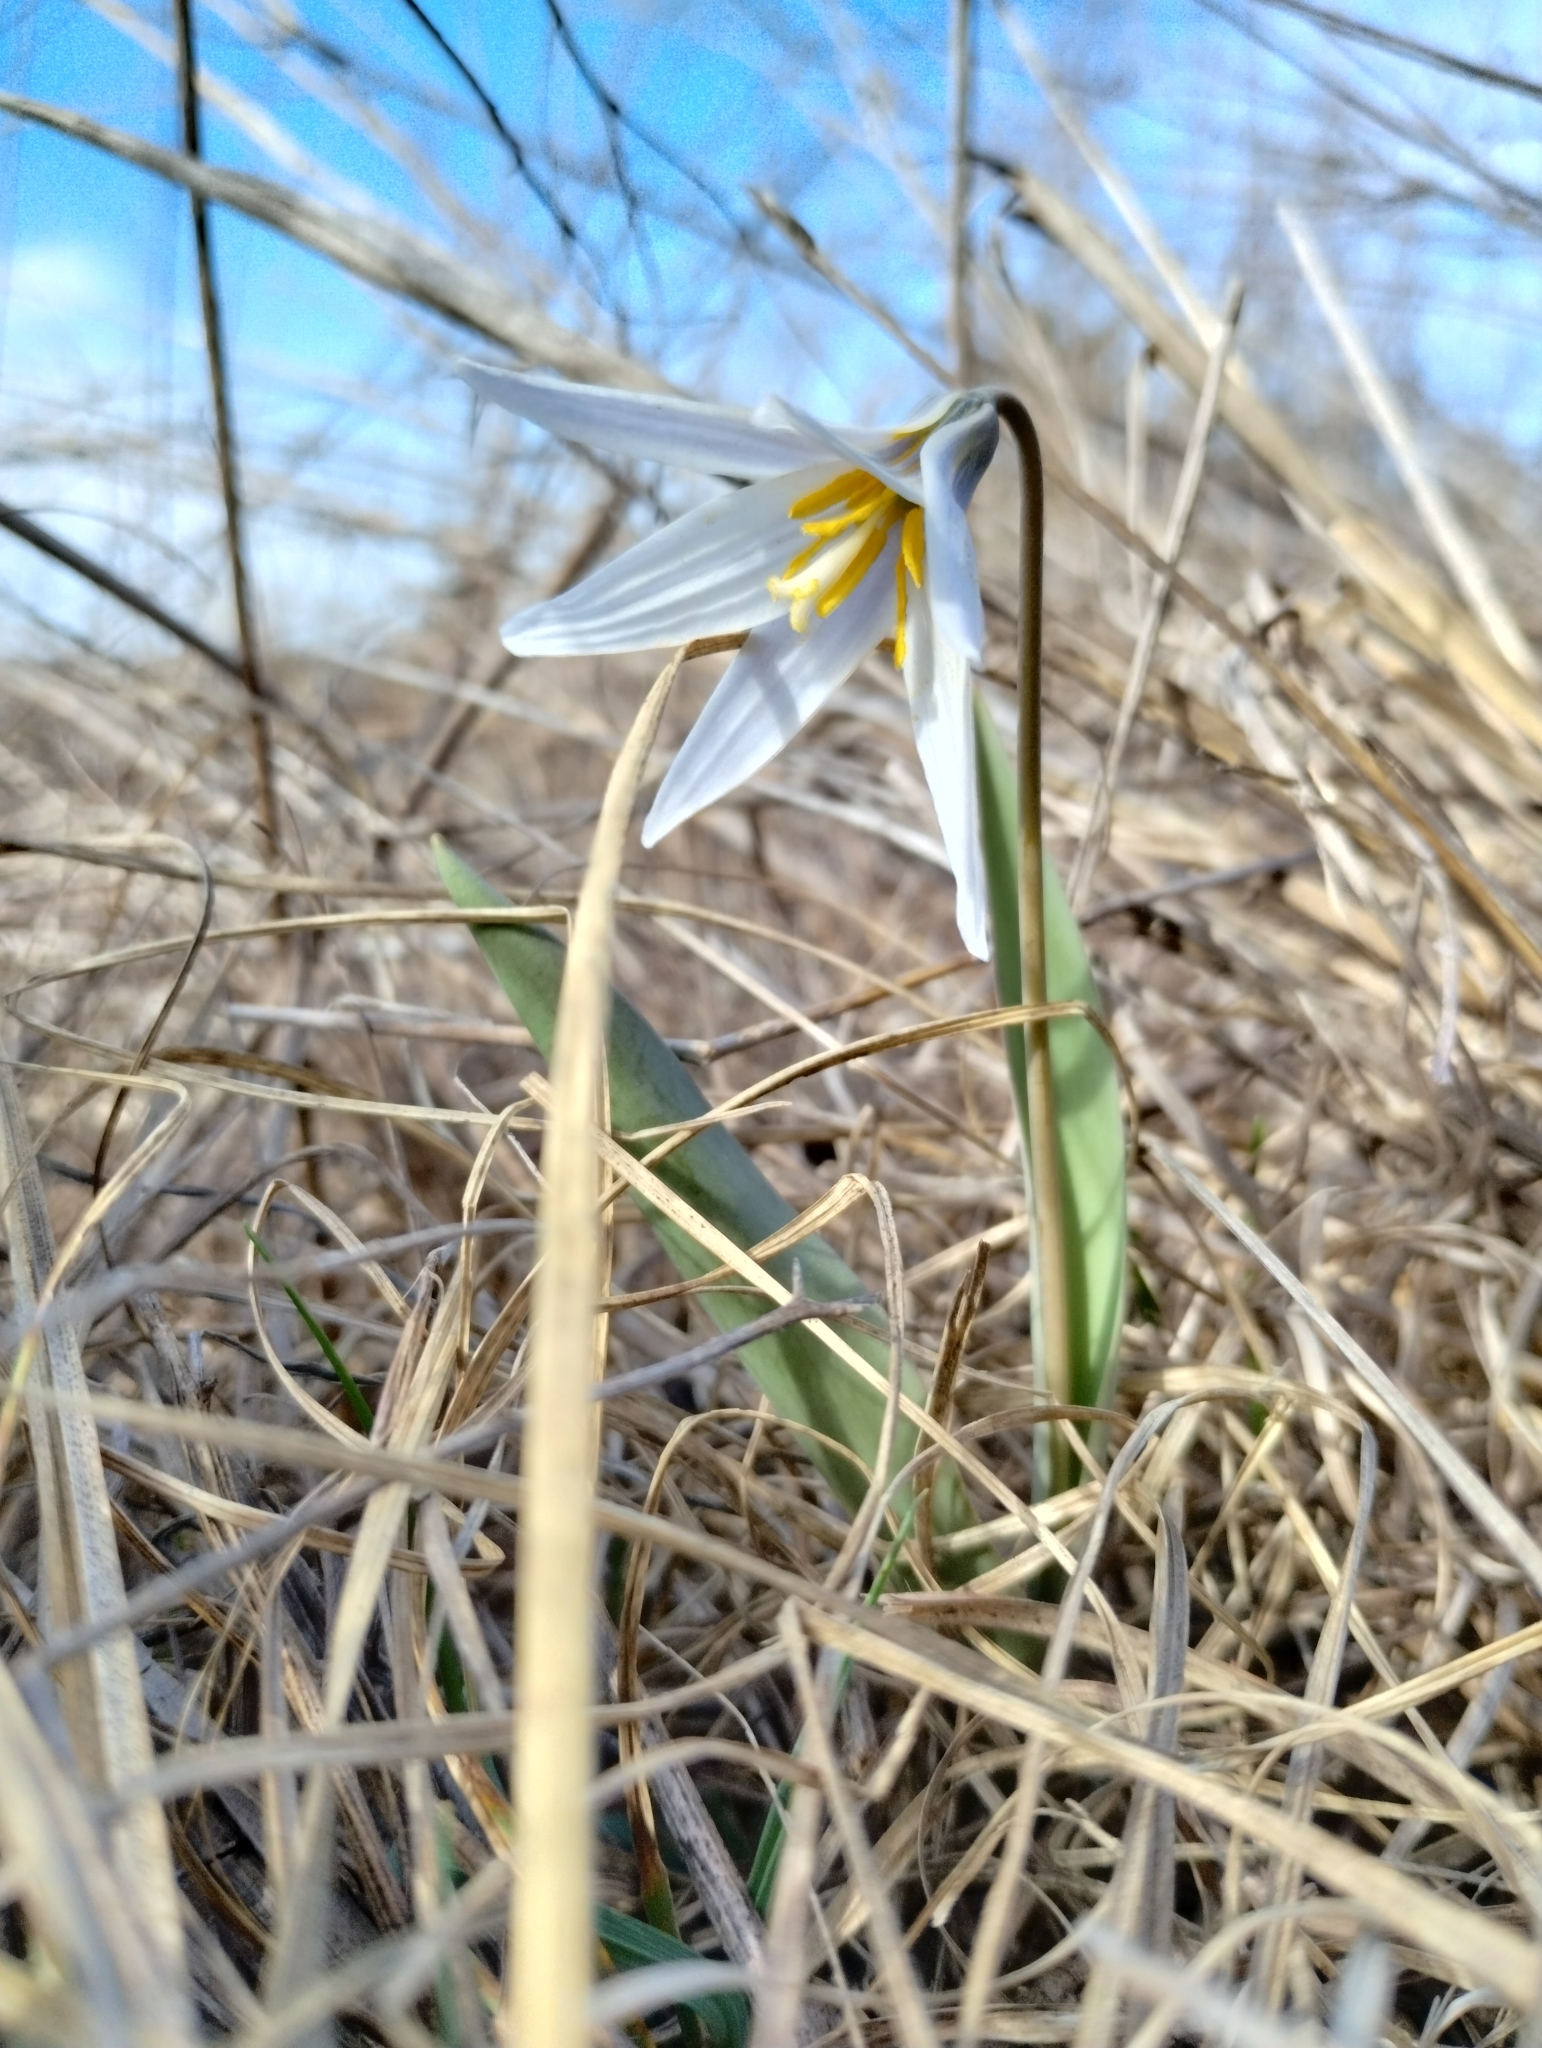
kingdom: Plantae
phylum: Tracheophyta
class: Liliopsida
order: Liliales
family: Liliaceae
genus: Erythronium
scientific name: Erythronium mesochoreum
